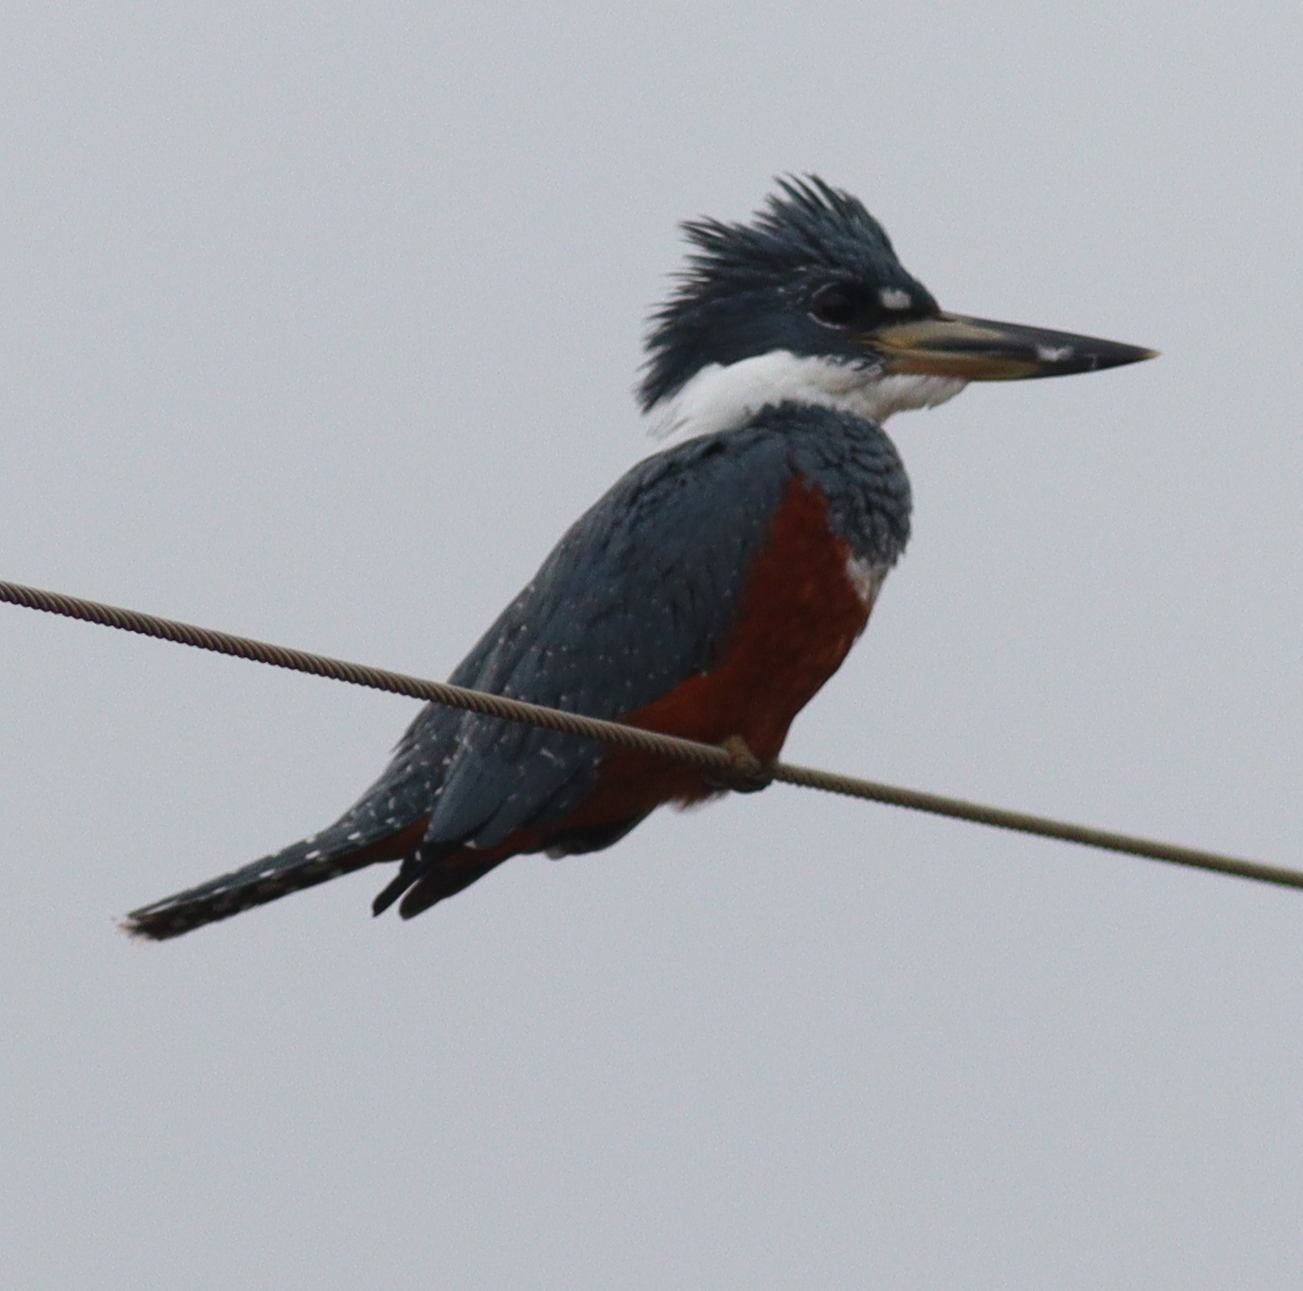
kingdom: Animalia
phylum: Chordata
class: Aves
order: Coraciiformes
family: Alcedinidae
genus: Megaceryle
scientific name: Megaceryle torquata
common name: Ringed kingfisher
